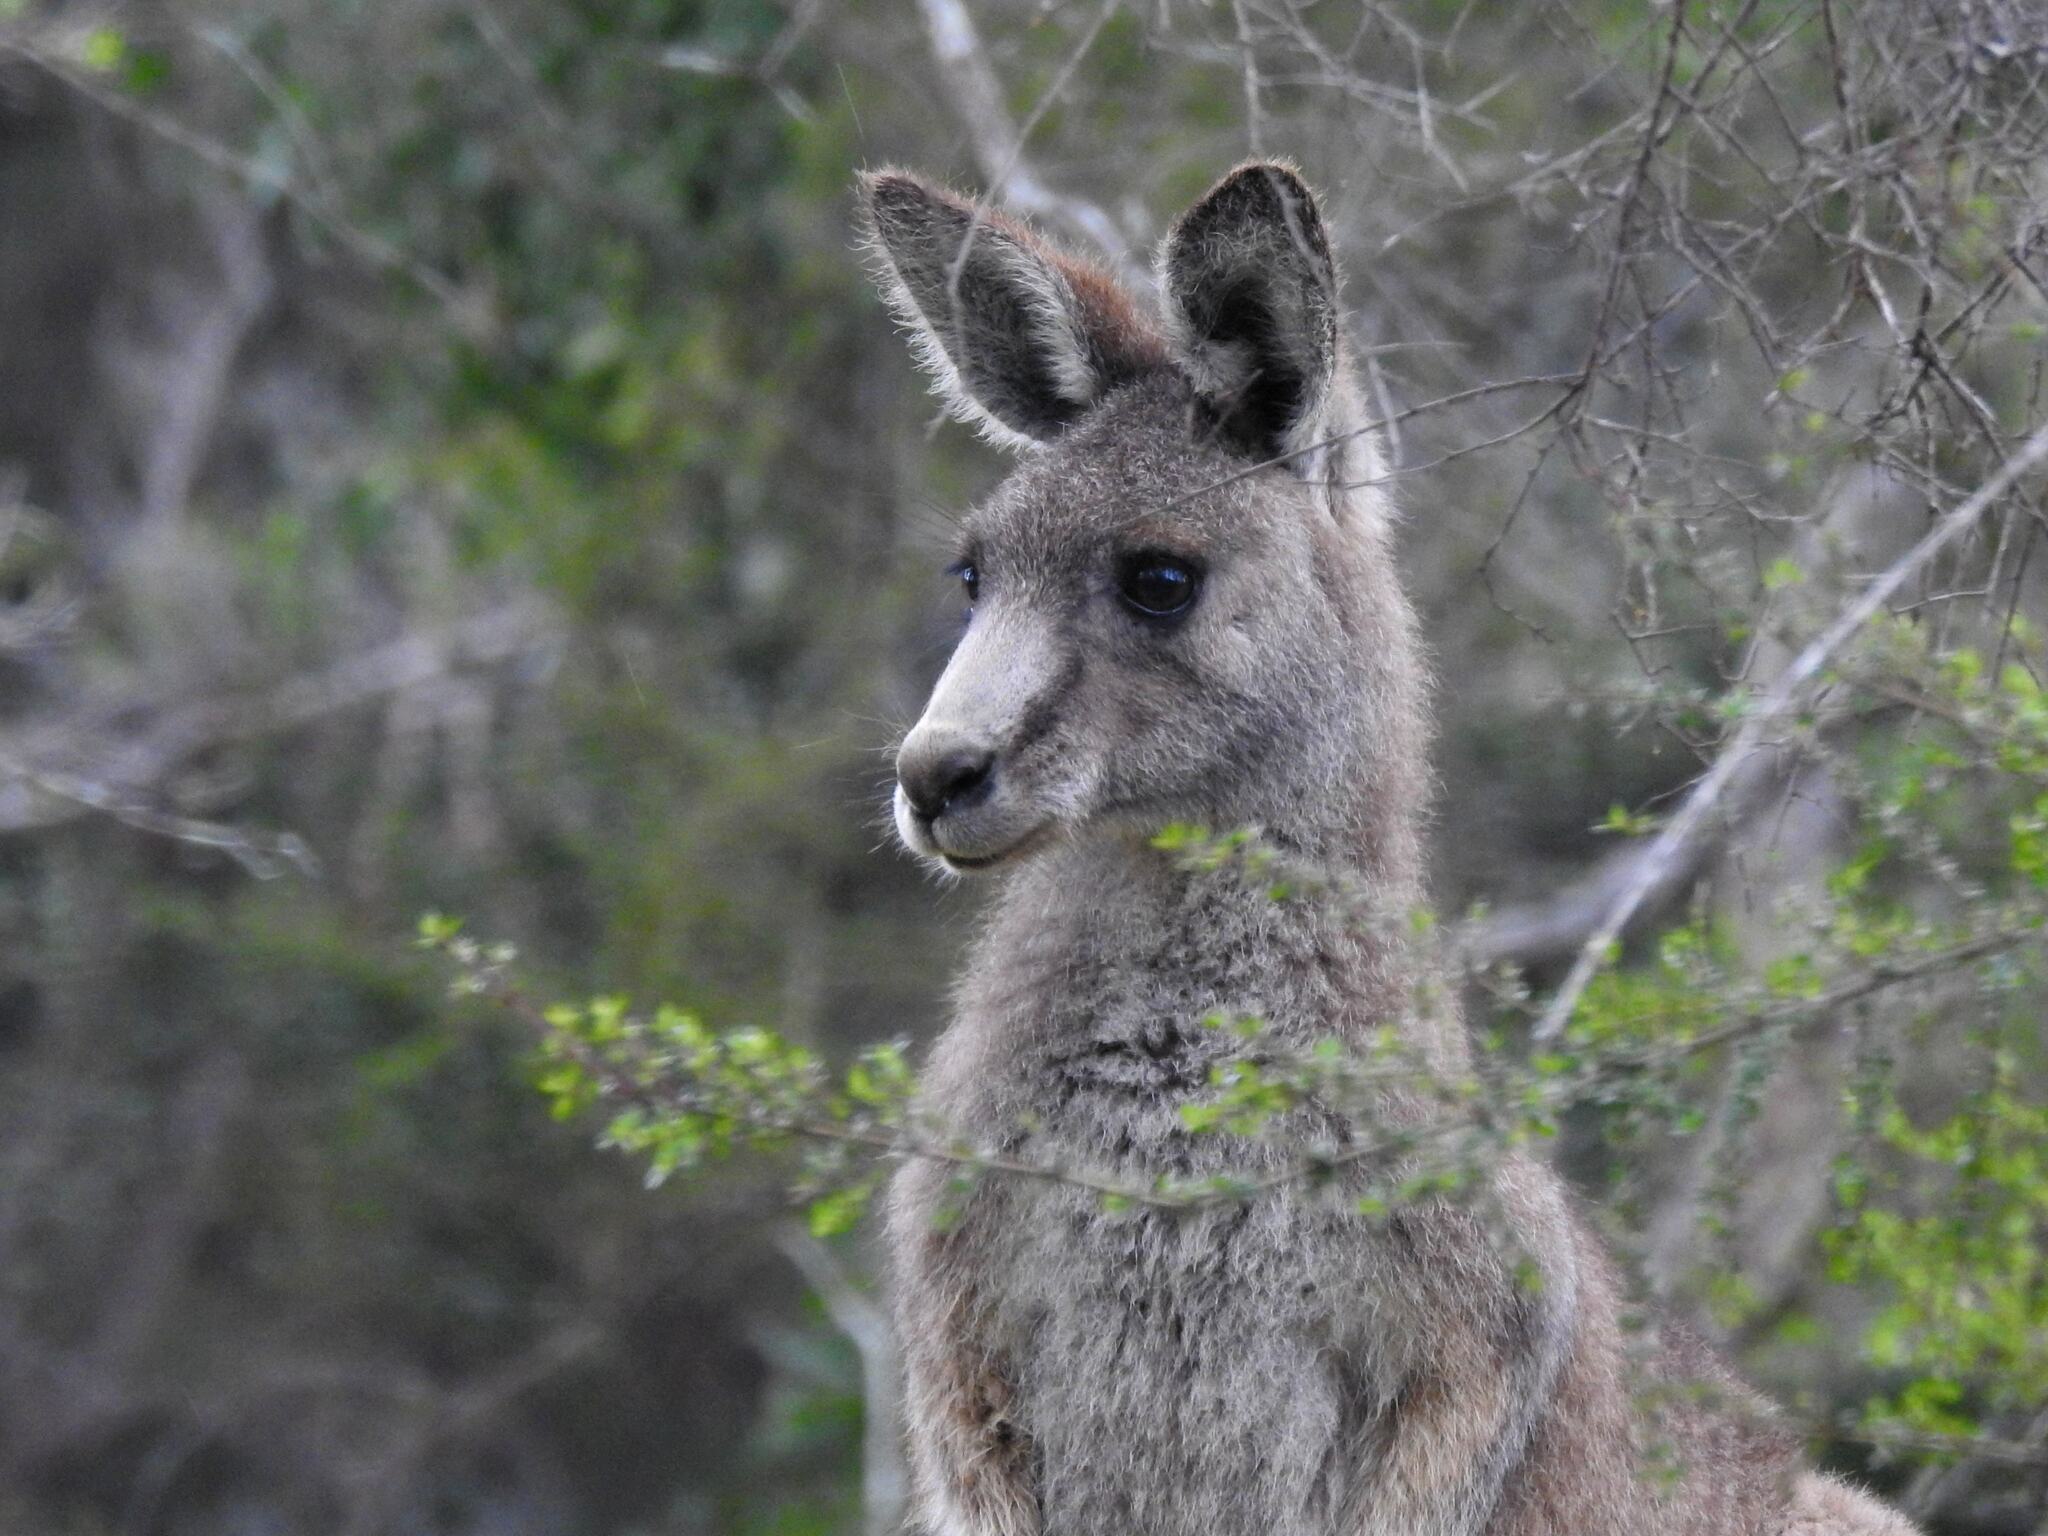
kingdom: Animalia
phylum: Chordata
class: Mammalia
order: Diprotodontia
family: Macropodidae
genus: Macropus
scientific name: Macropus giganteus
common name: Eastern grey kangaroo
